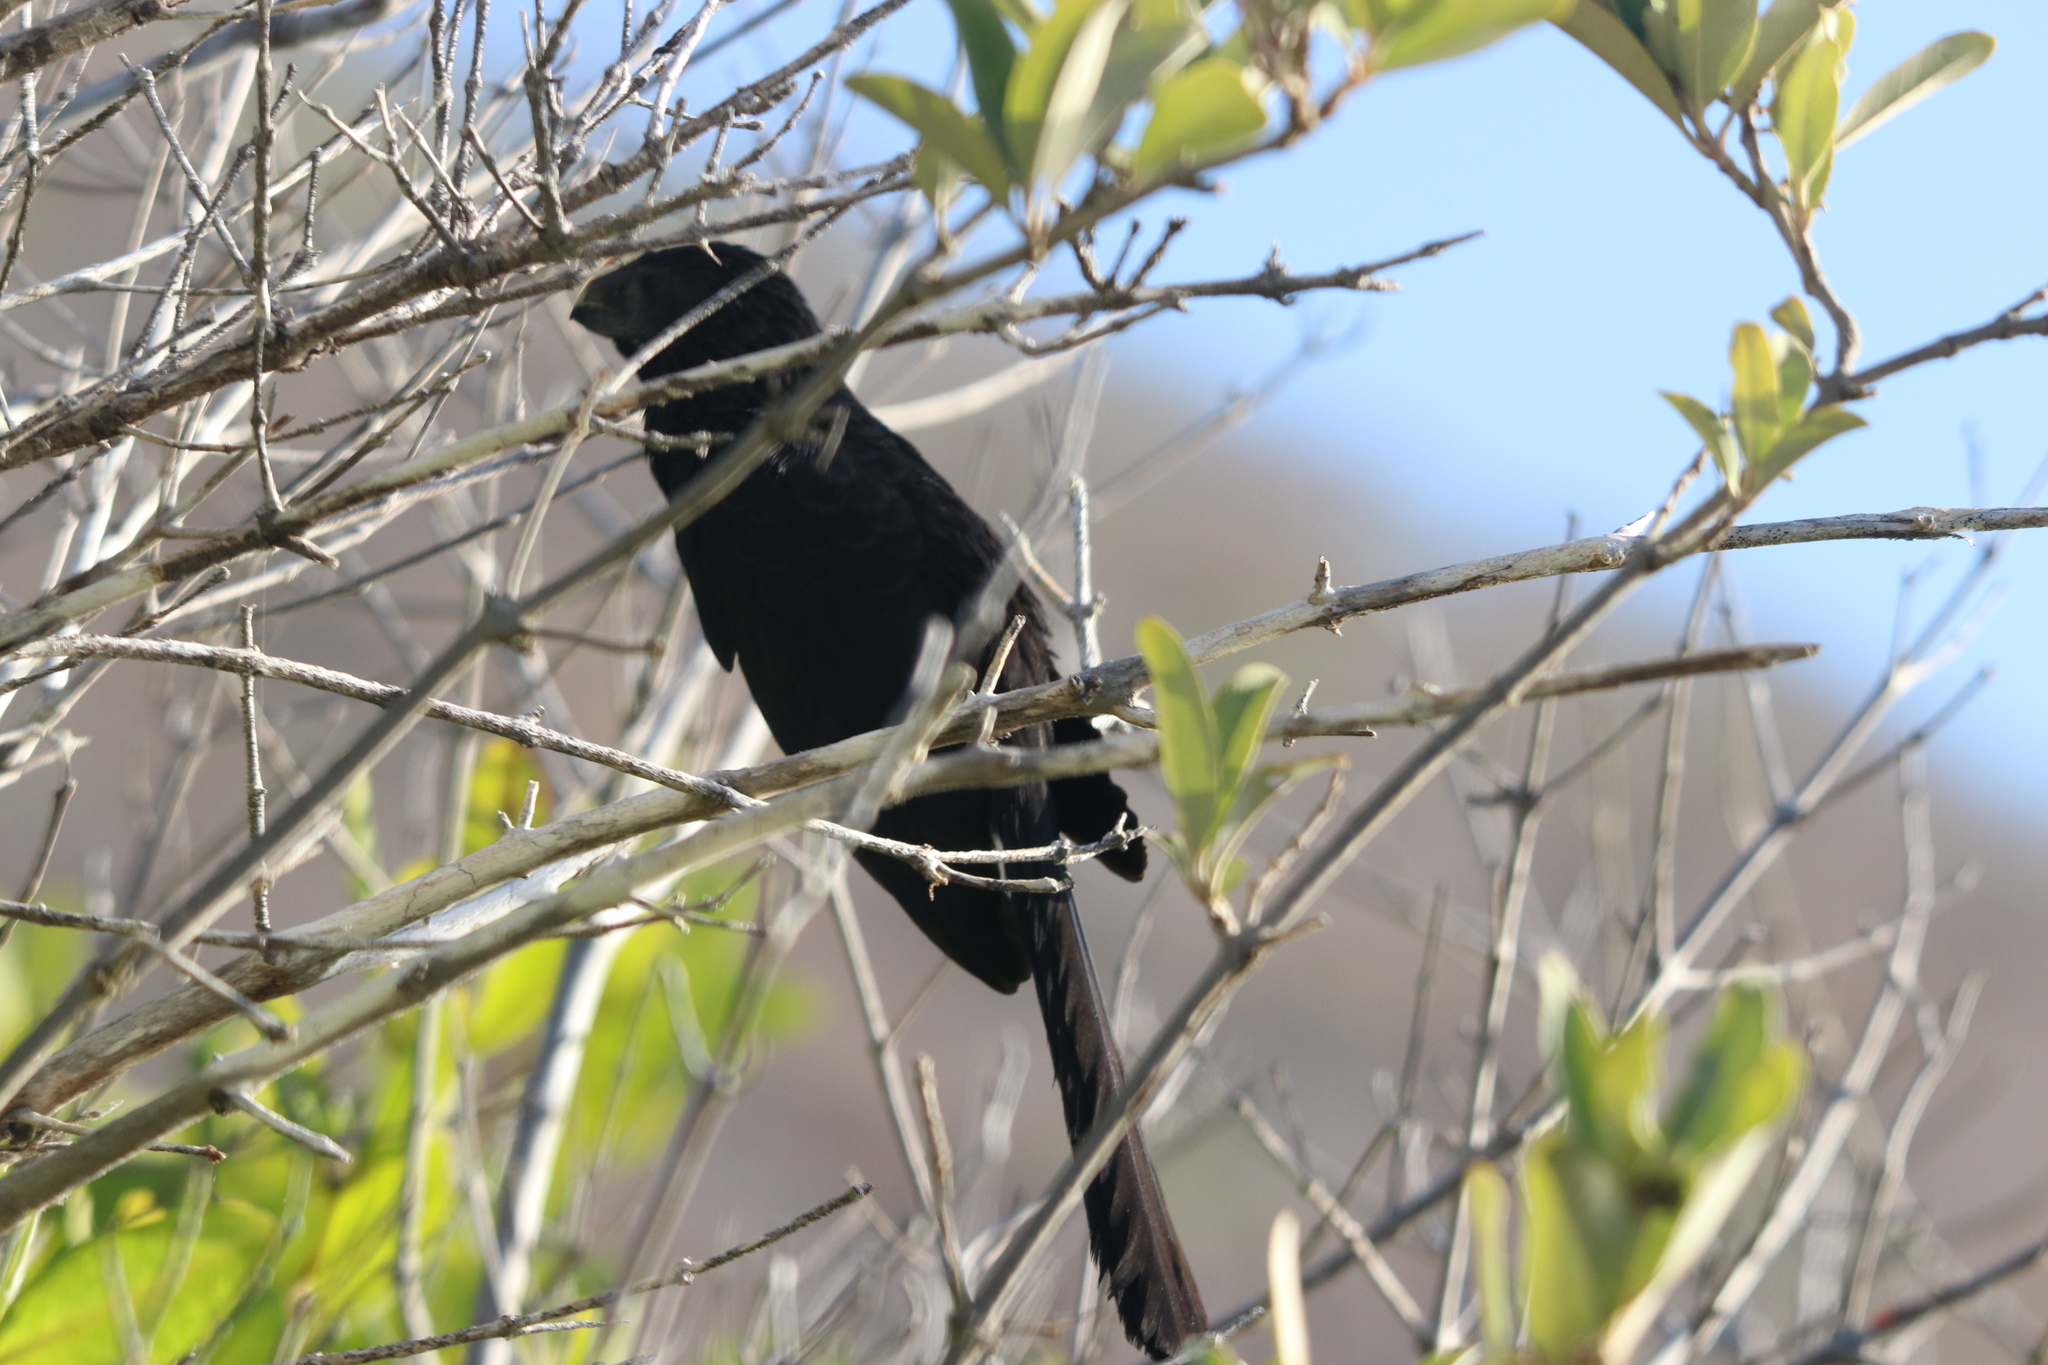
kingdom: Animalia
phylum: Chordata
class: Aves
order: Cuculiformes
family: Cuculidae
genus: Crotophaga
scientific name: Crotophaga ani
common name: Smooth-billed ani
